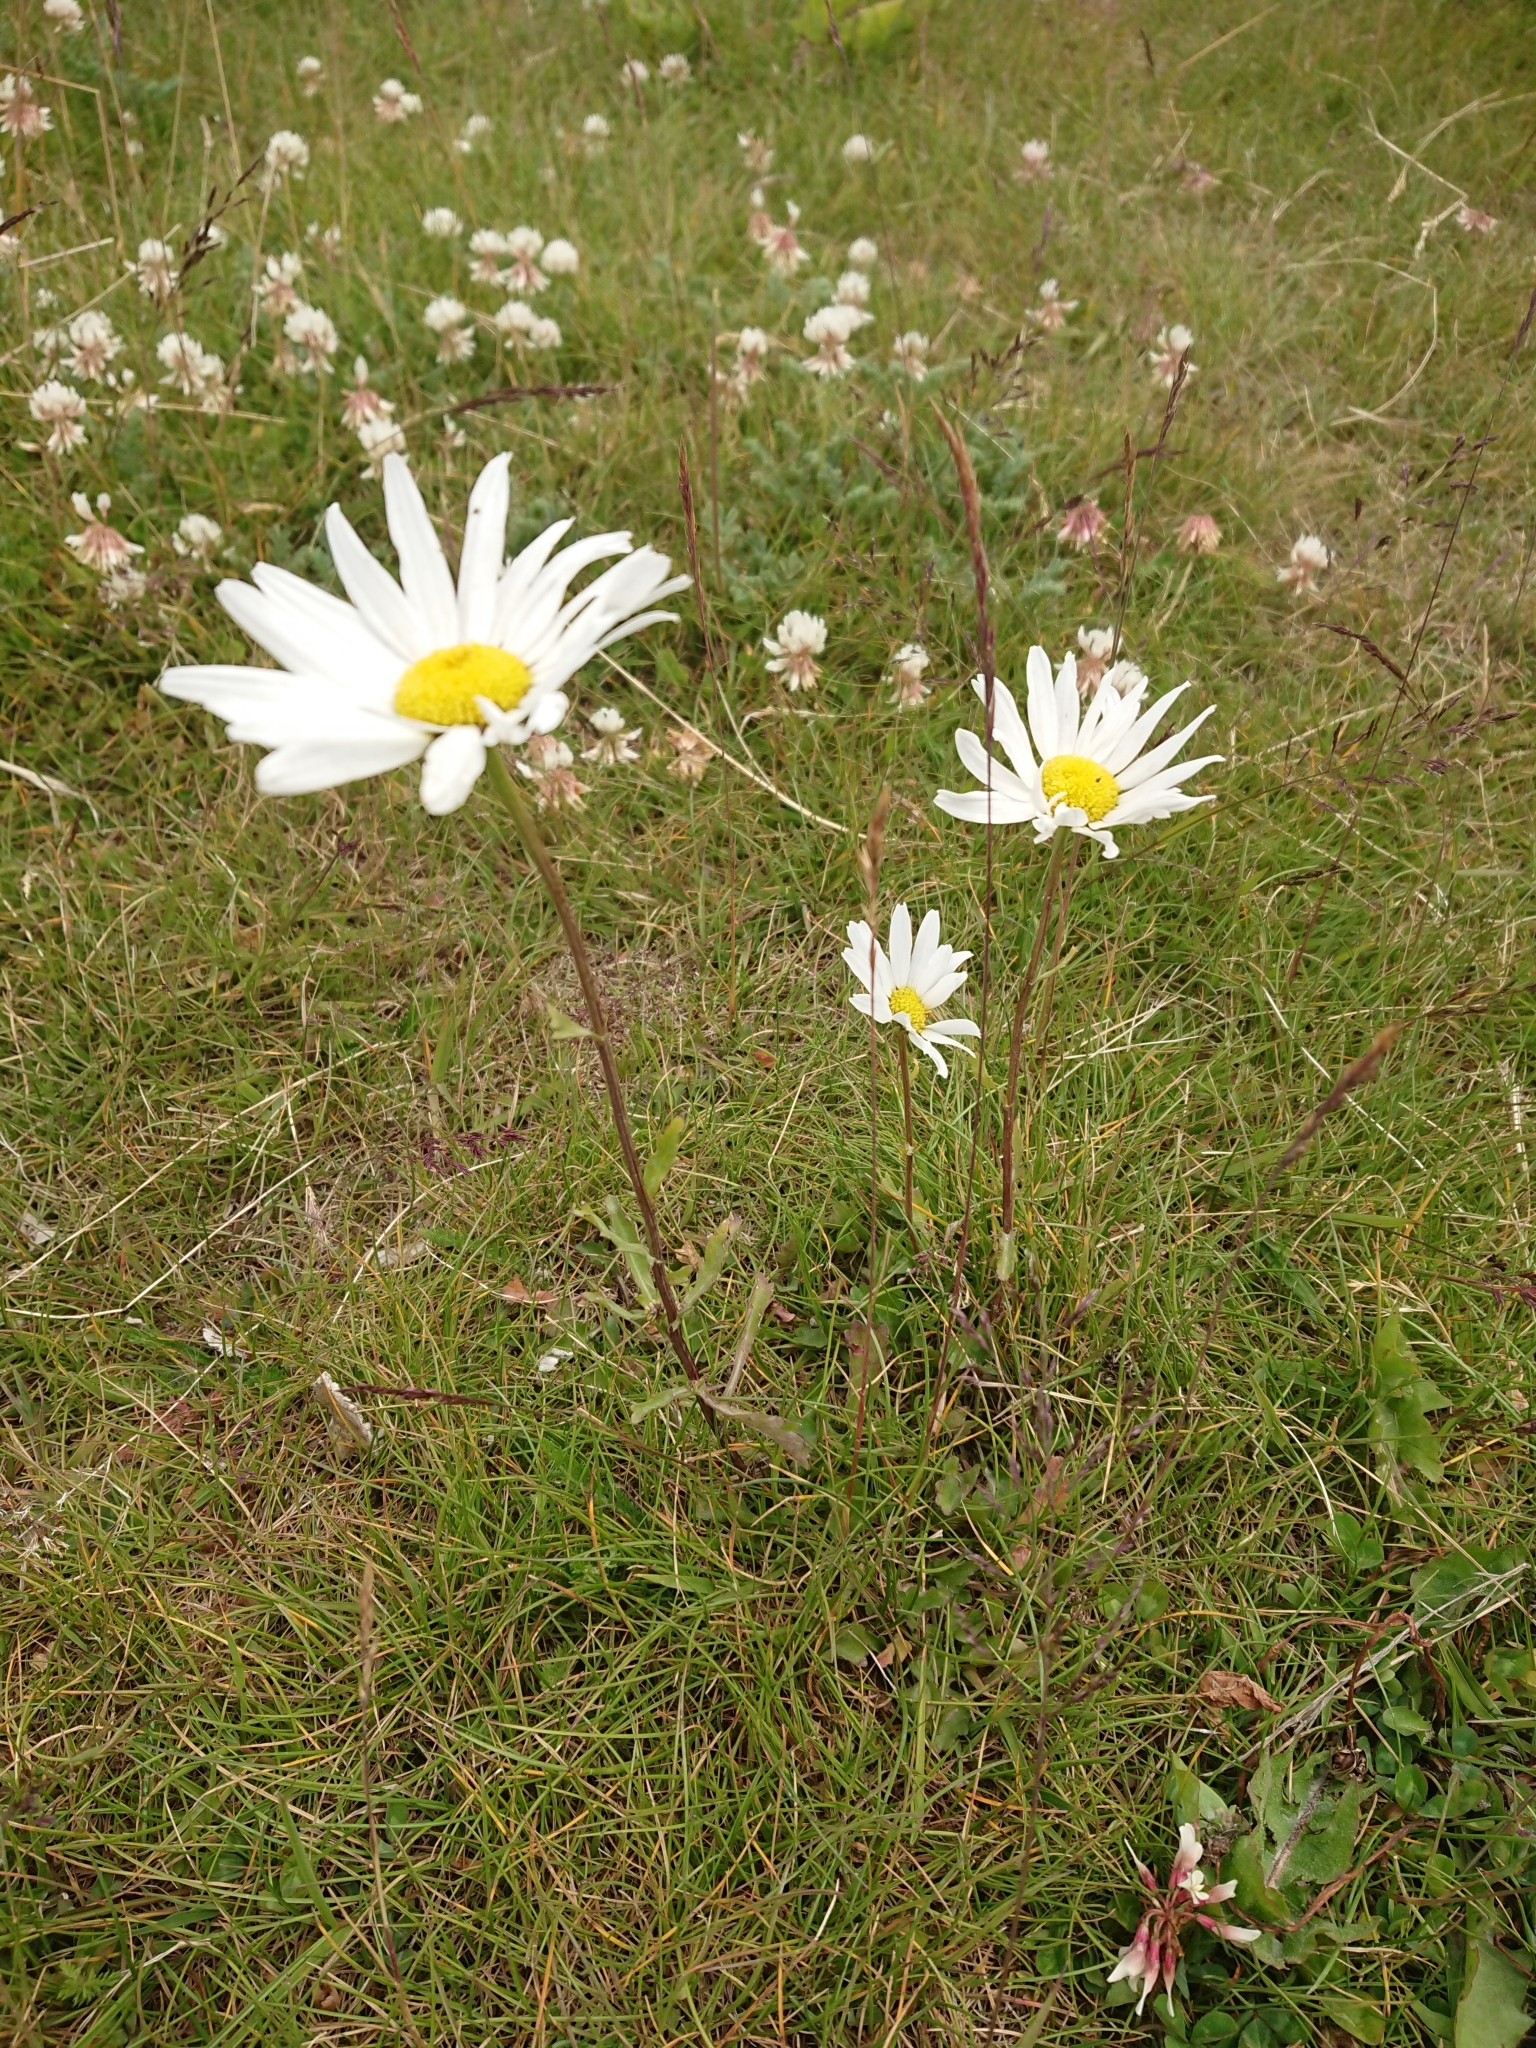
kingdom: Plantae
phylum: Tracheophyta
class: Magnoliopsida
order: Asterales
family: Asteraceae
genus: Leucanthemum
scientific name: Leucanthemum vulgare
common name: Oxeye daisy
